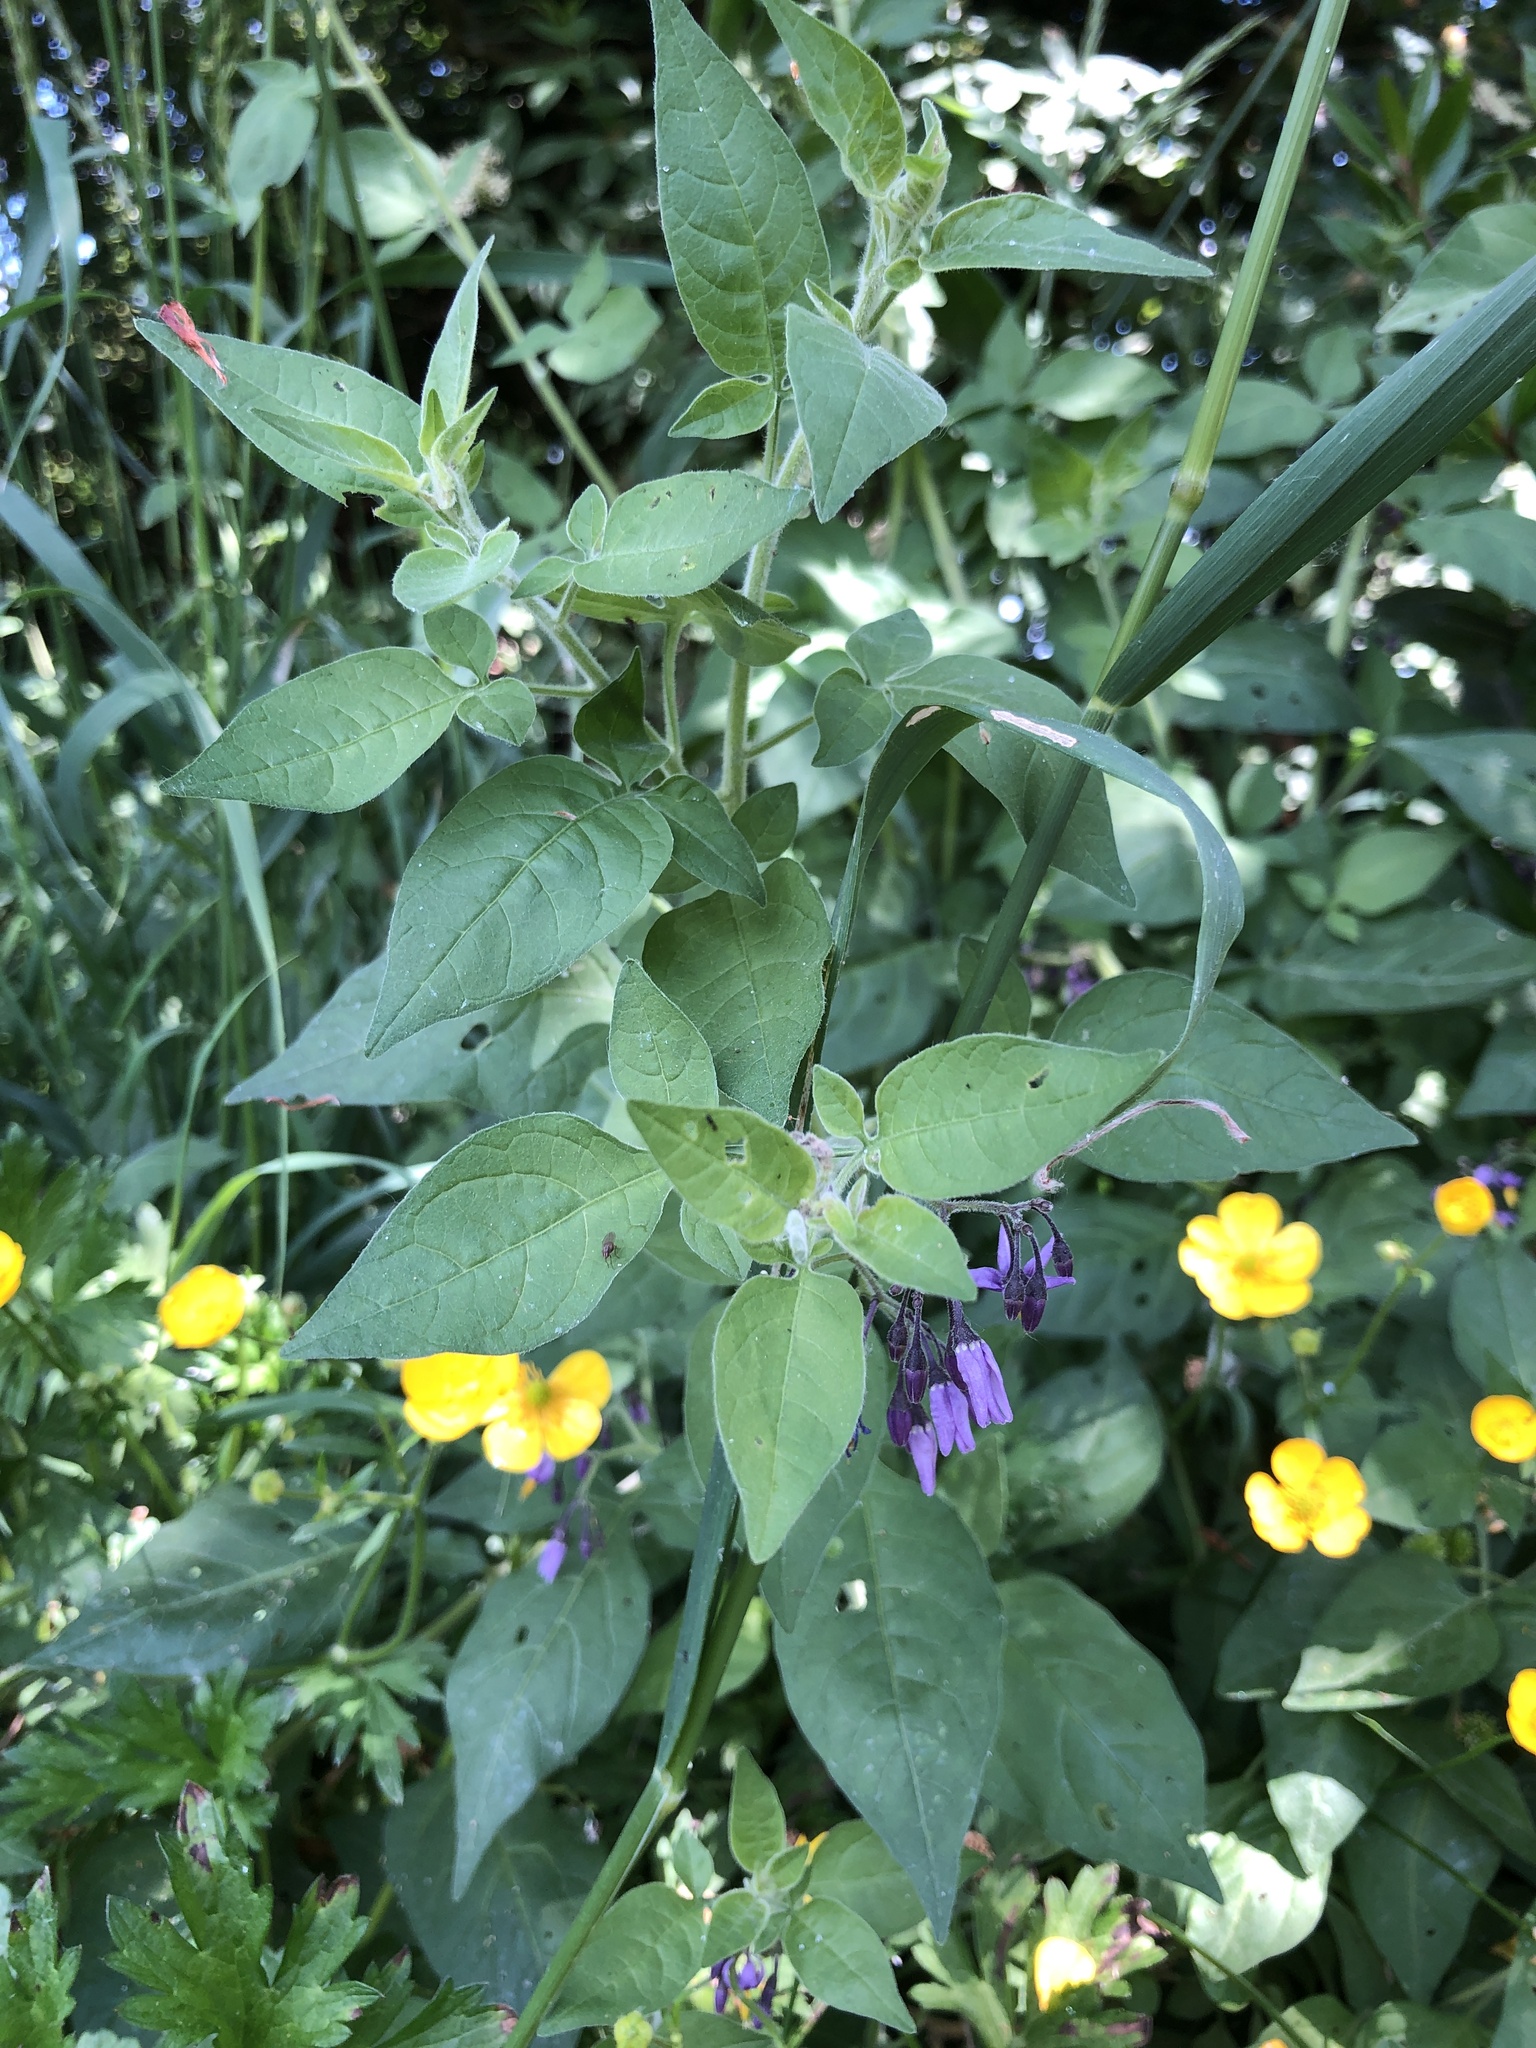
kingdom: Plantae
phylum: Tracheophyta
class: Magnoliopsida
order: Solanales
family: Solanaceae
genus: Solanum
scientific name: Solanum dulcamara
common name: Climbing nightshade
